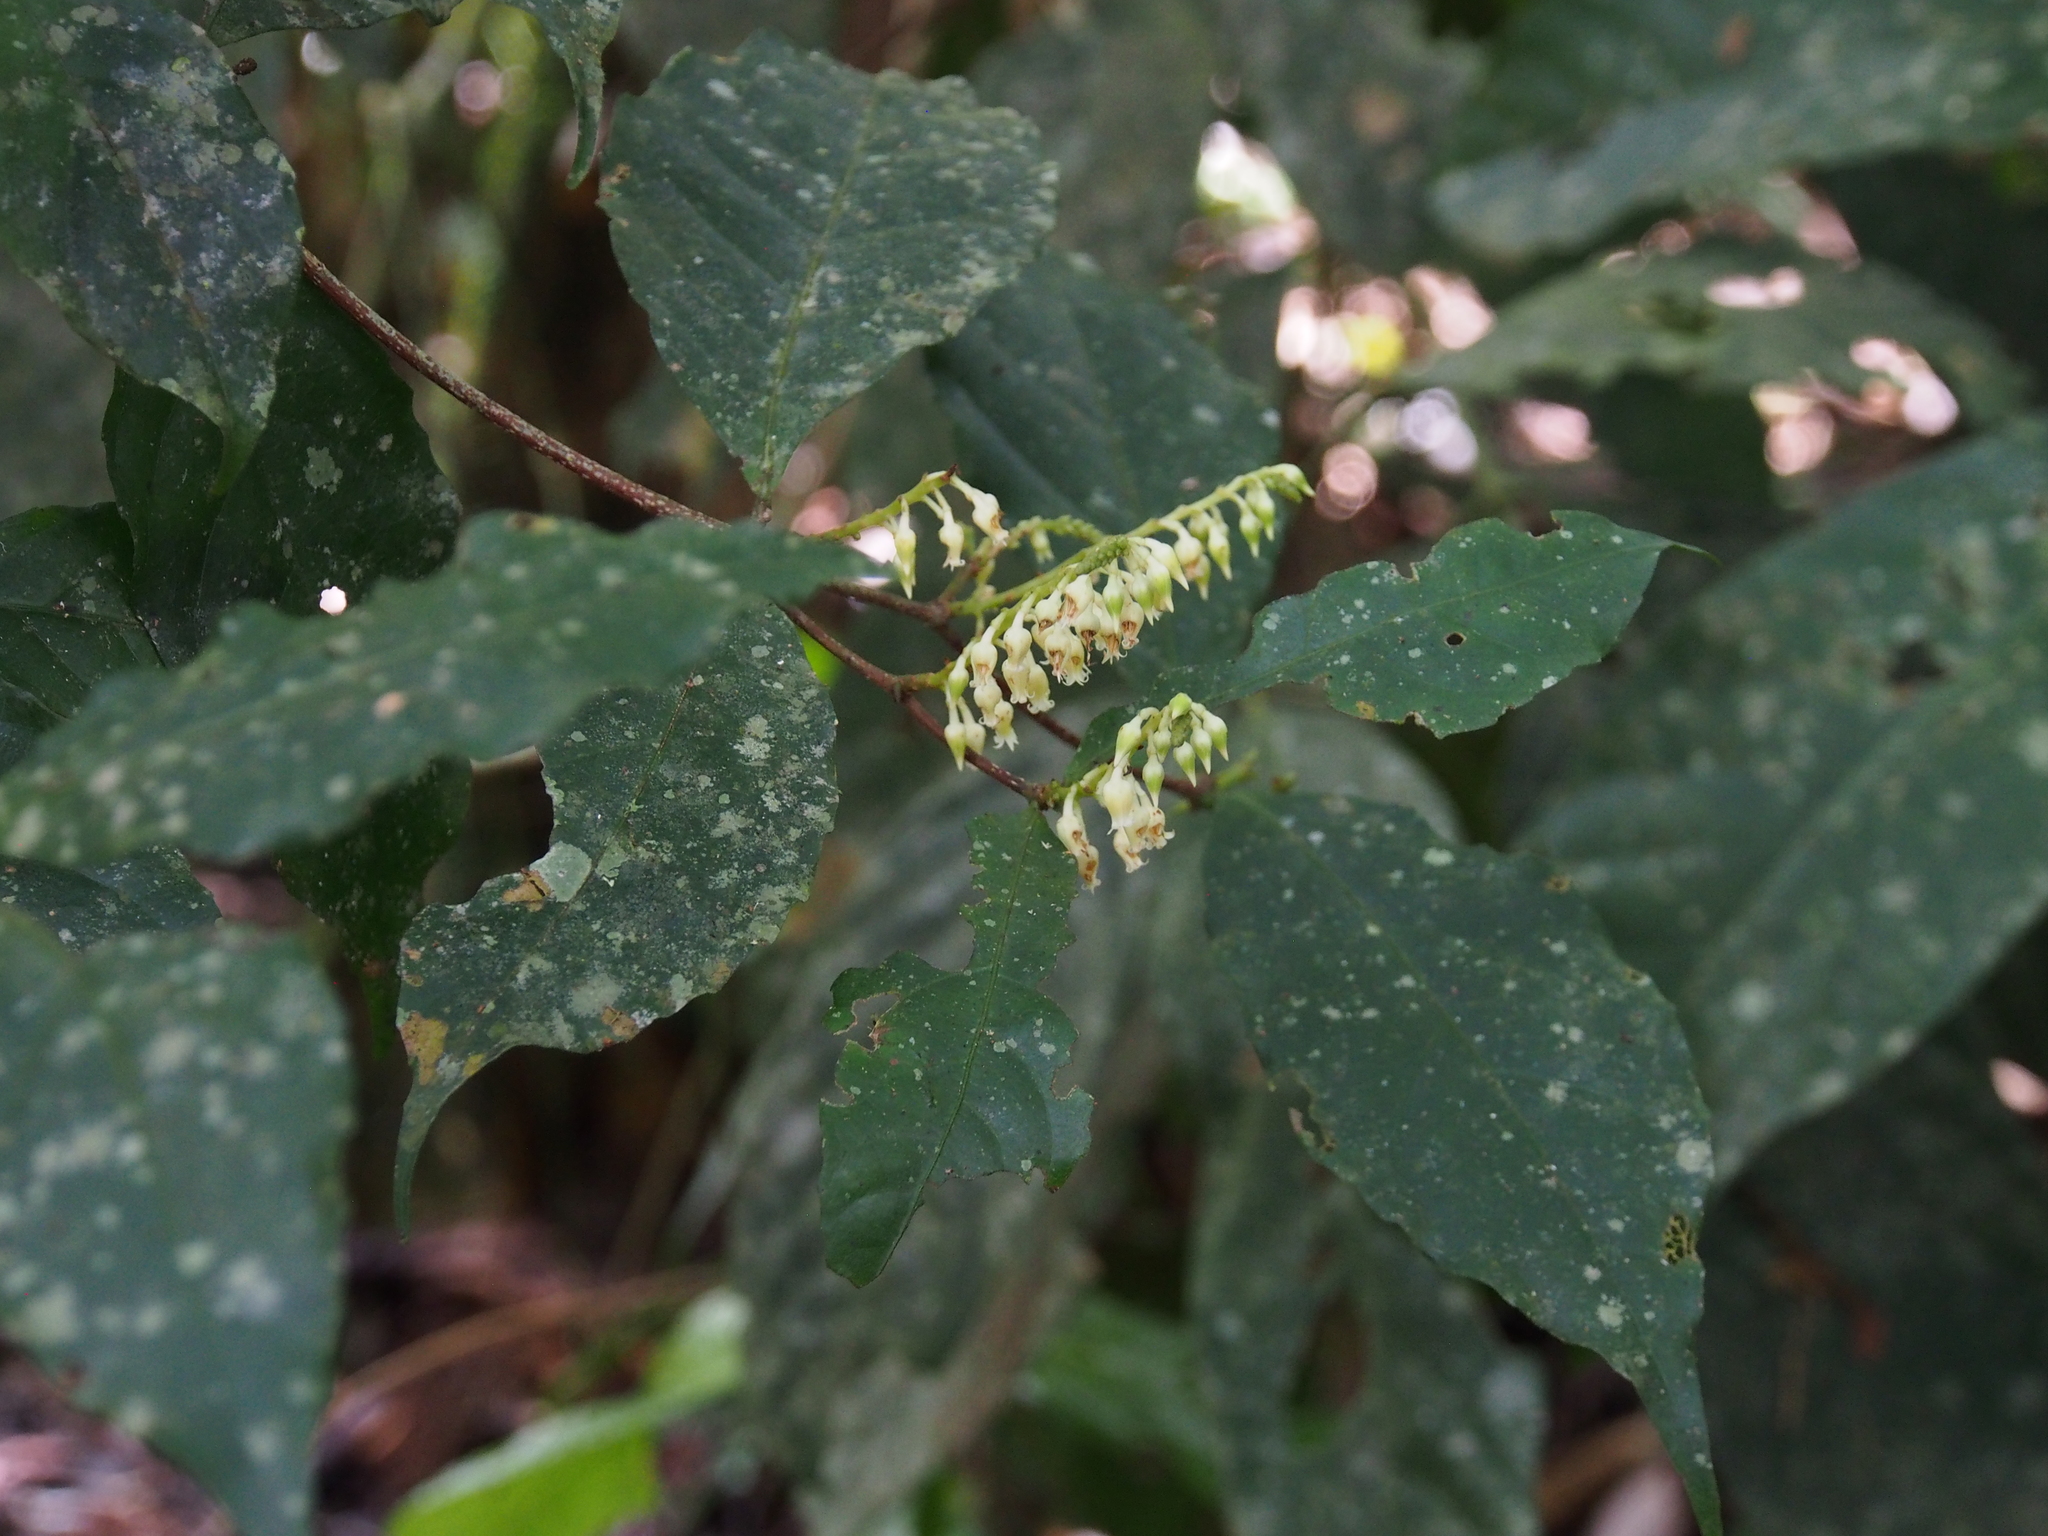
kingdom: Plantae
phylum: Tracheophyta
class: Magnoliopsida
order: Malpighiales
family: Violaceae
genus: Rinorea
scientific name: Rinorea hummelii
